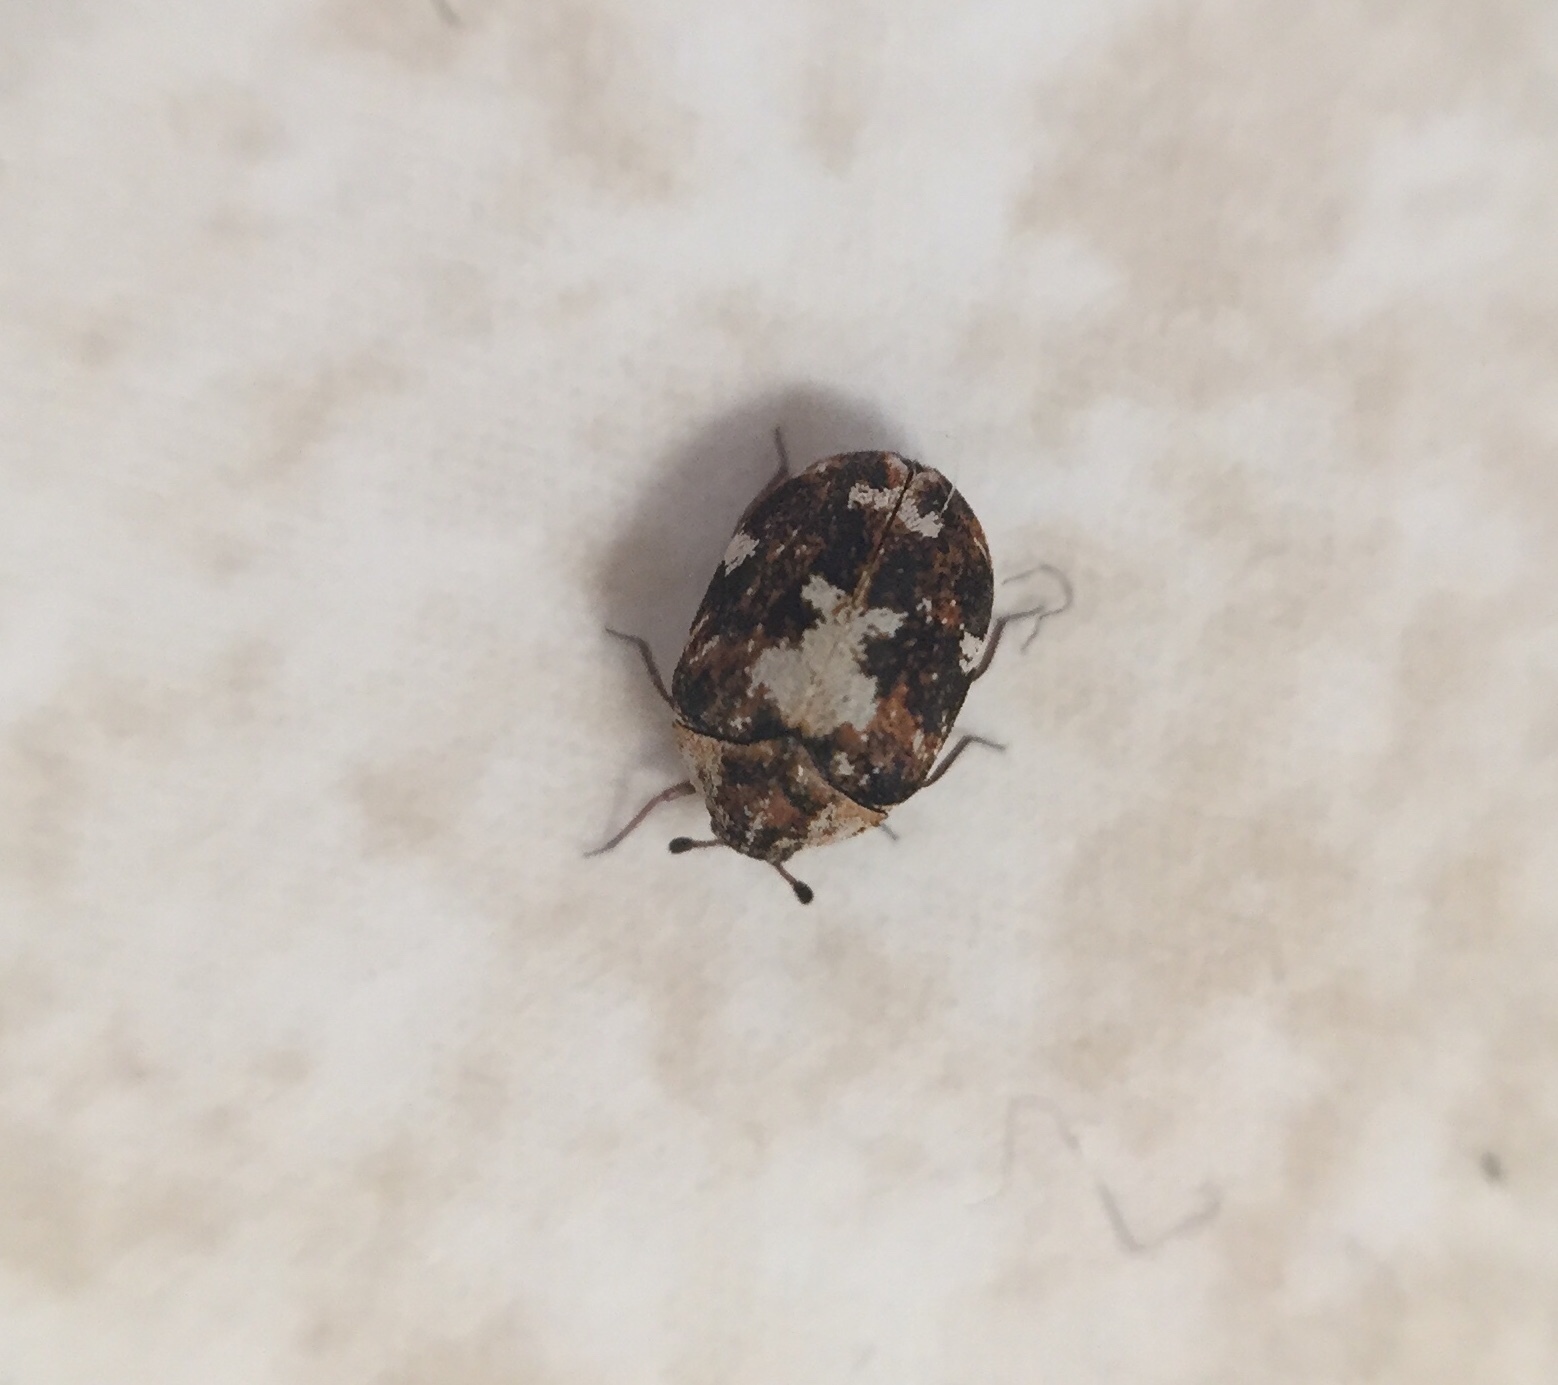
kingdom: Animalia
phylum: Arthropoda
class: Insecta
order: Coleoptera
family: Dermestidae
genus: Anthrenus
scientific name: Anthrenus lepidus
